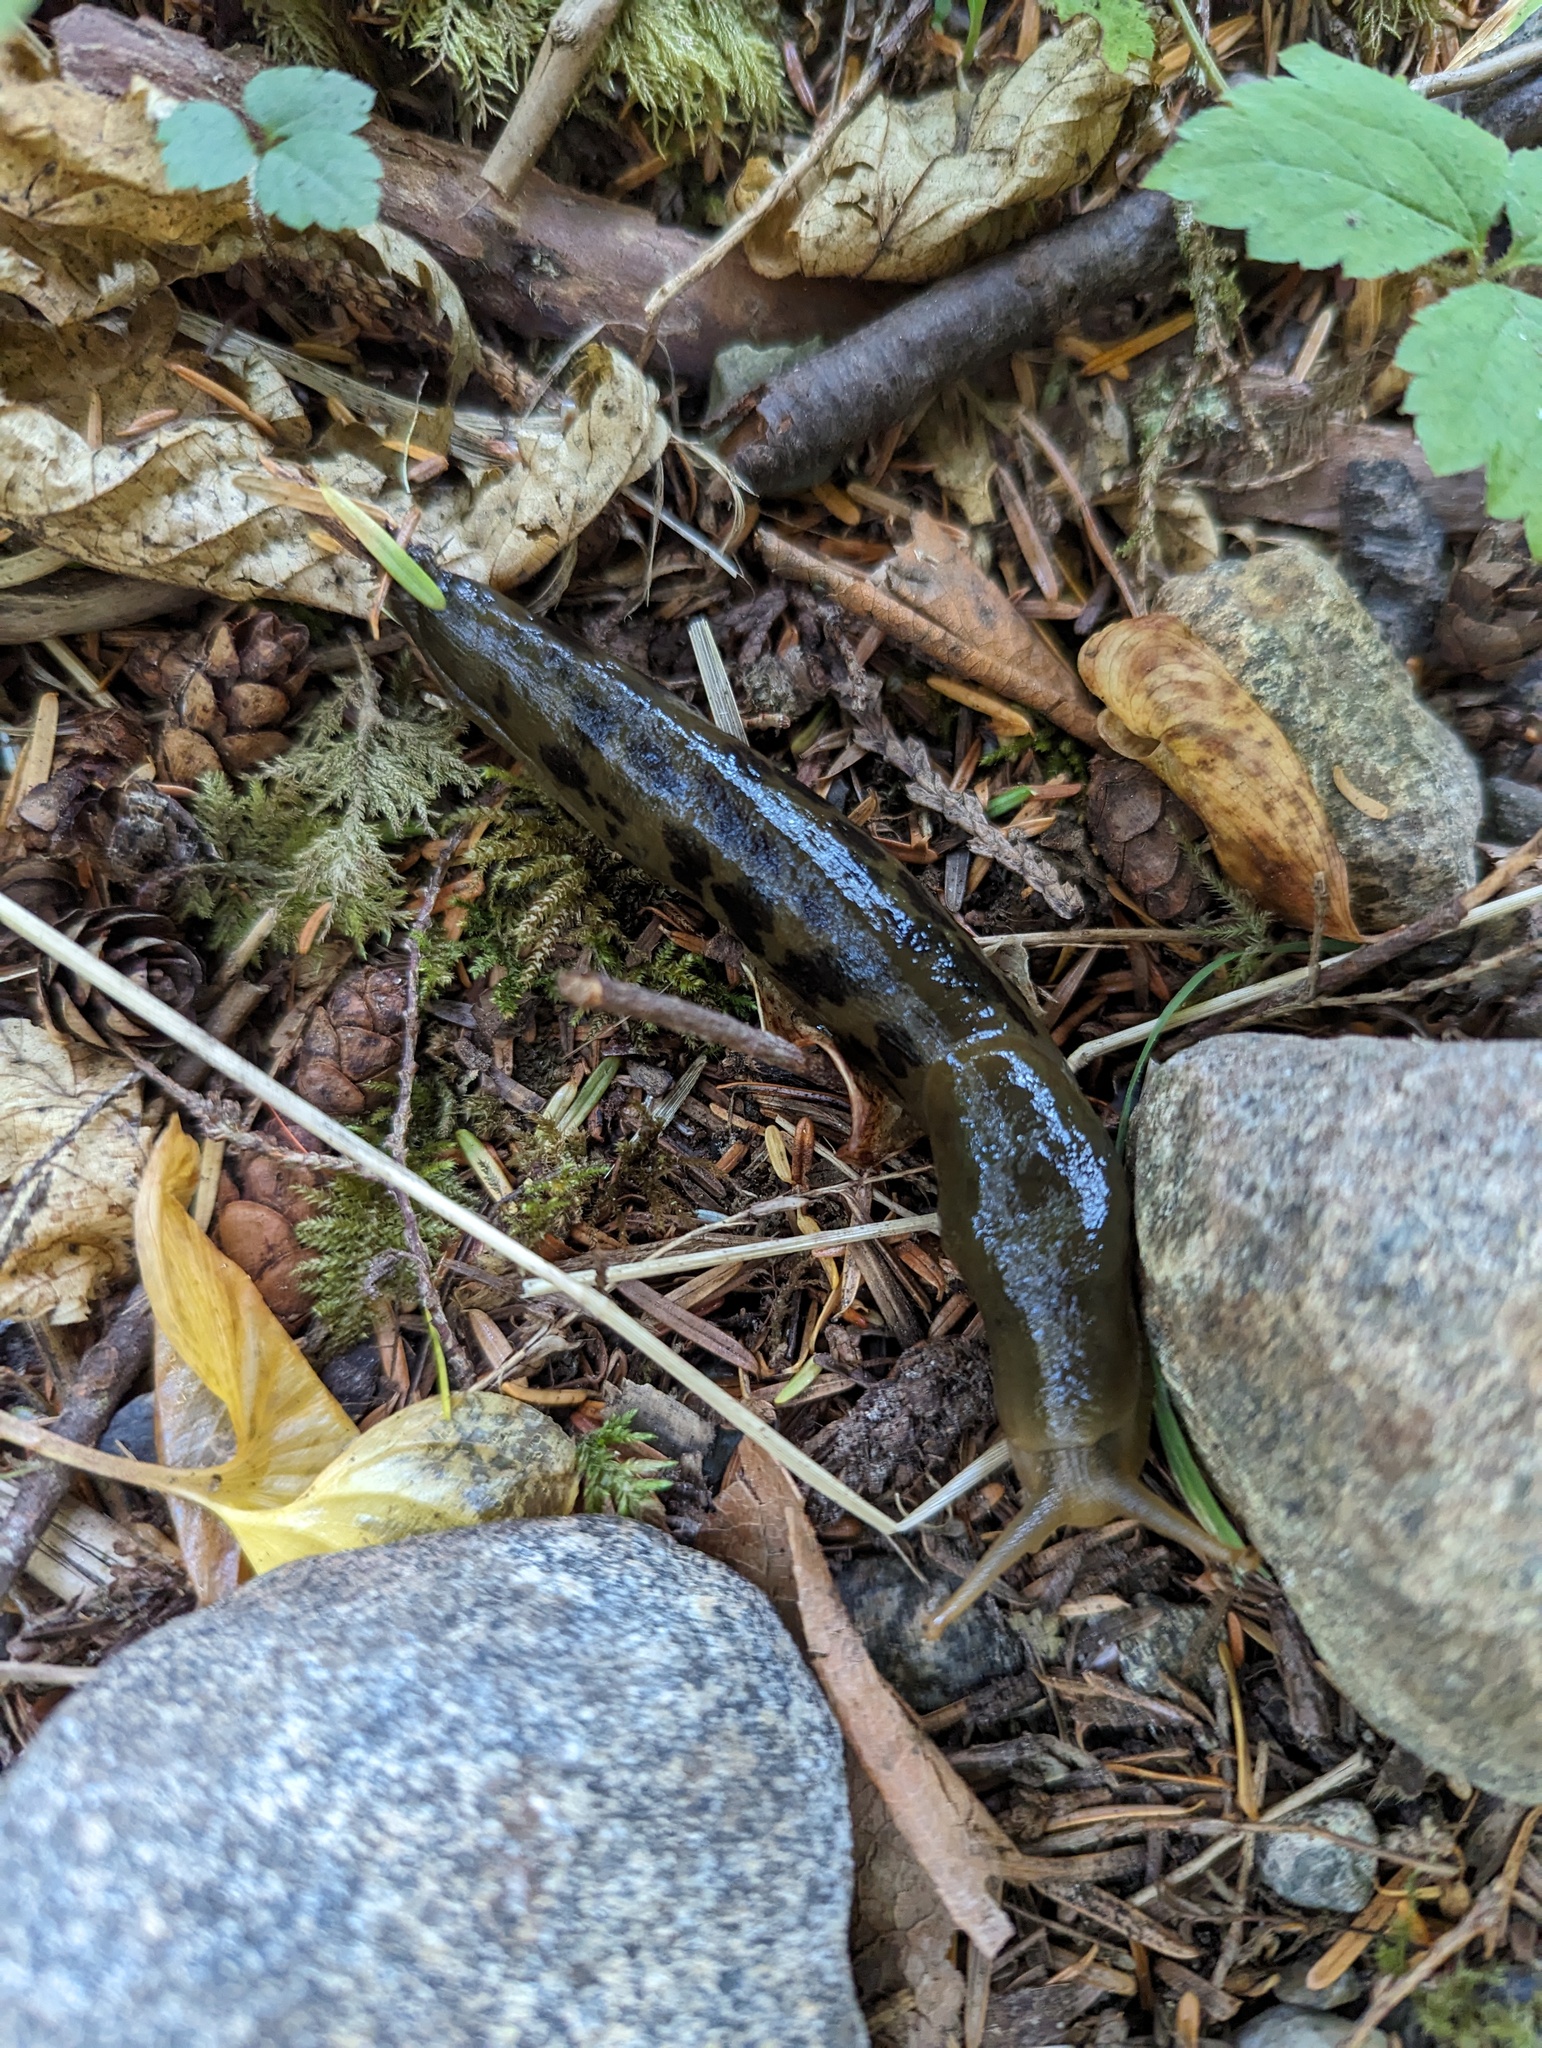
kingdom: Animalia
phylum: Mollusca
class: Gastropoda
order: Stylommatophora
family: Ariolimacidae
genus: Ariolimax
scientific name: Ariolimax columbianus
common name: Pacific banana slug
